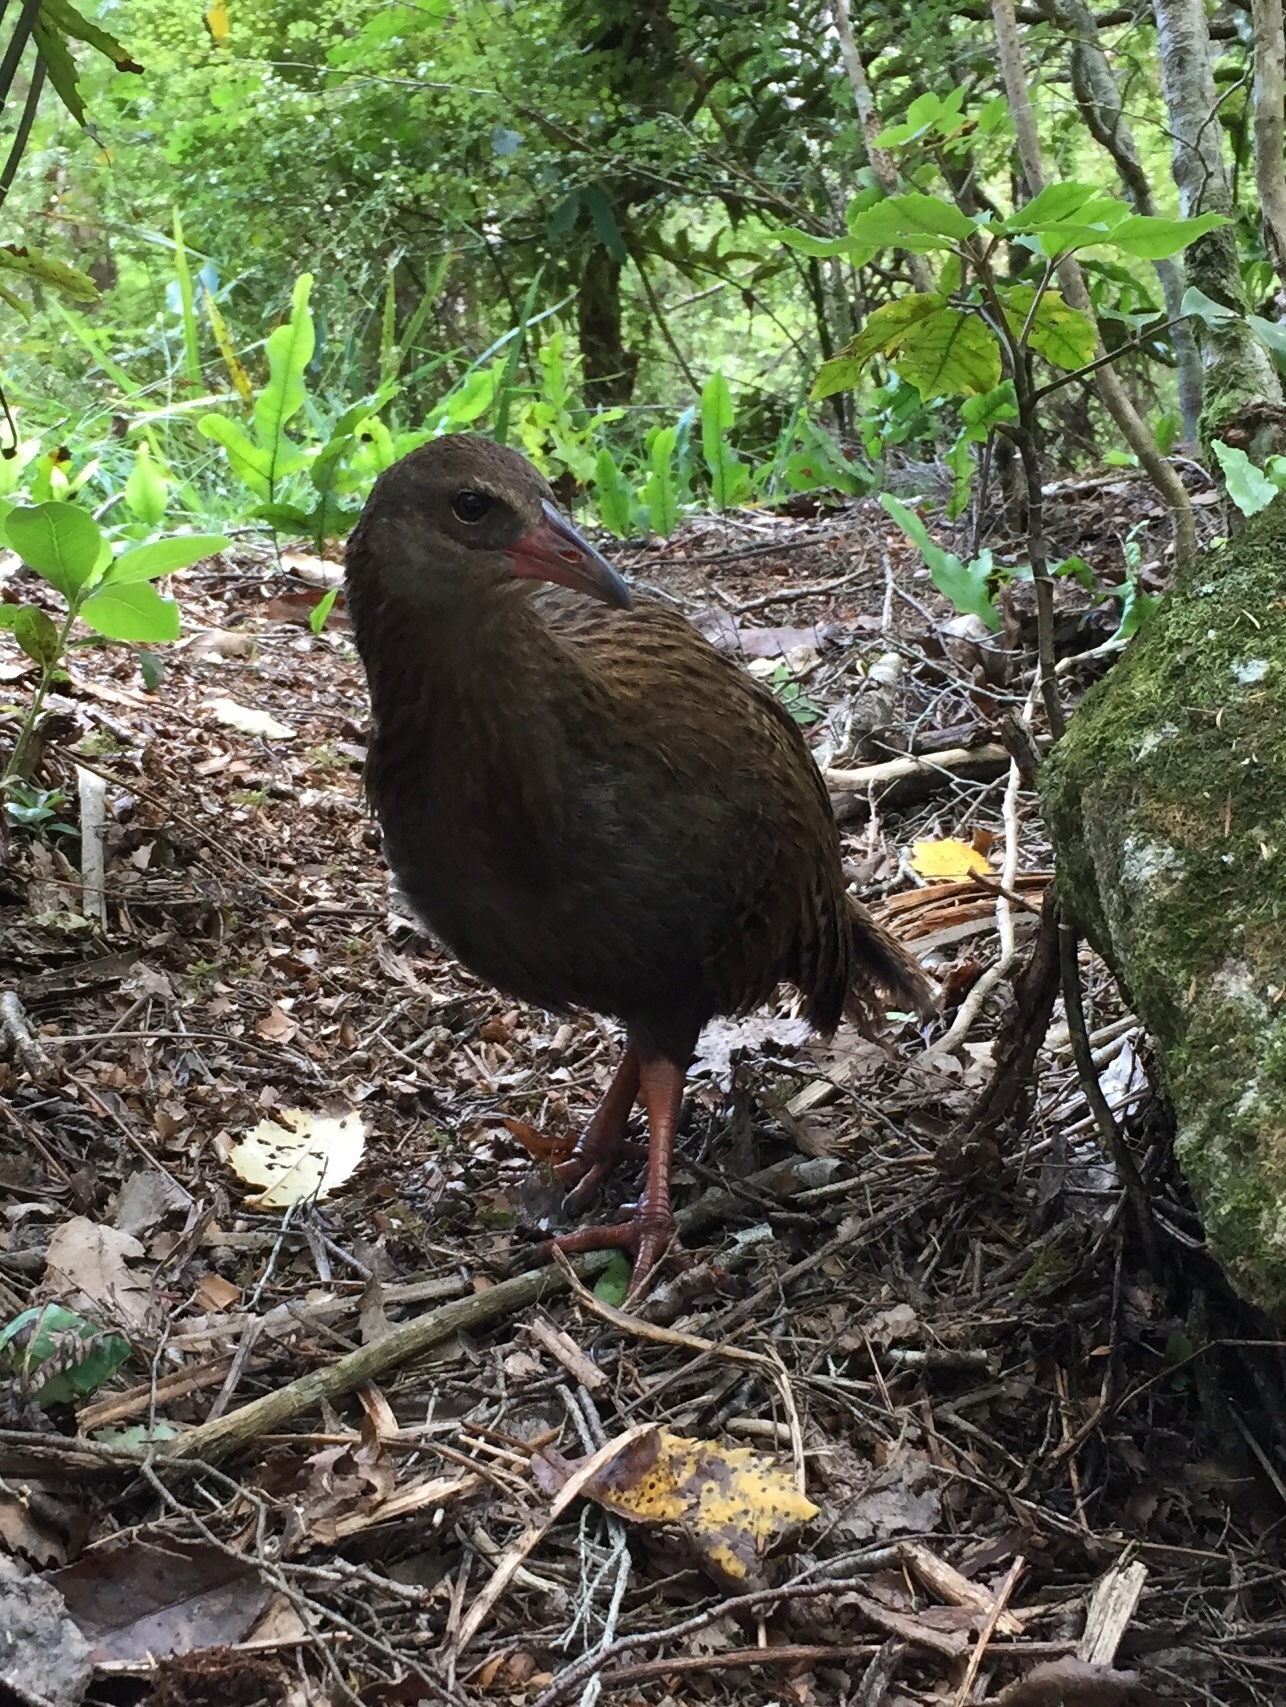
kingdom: Animalia
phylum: Chordata
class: Aves
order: Gruiformes
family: Rallidae
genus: Gallirallus
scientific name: Gallirallus australis
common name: Weka
